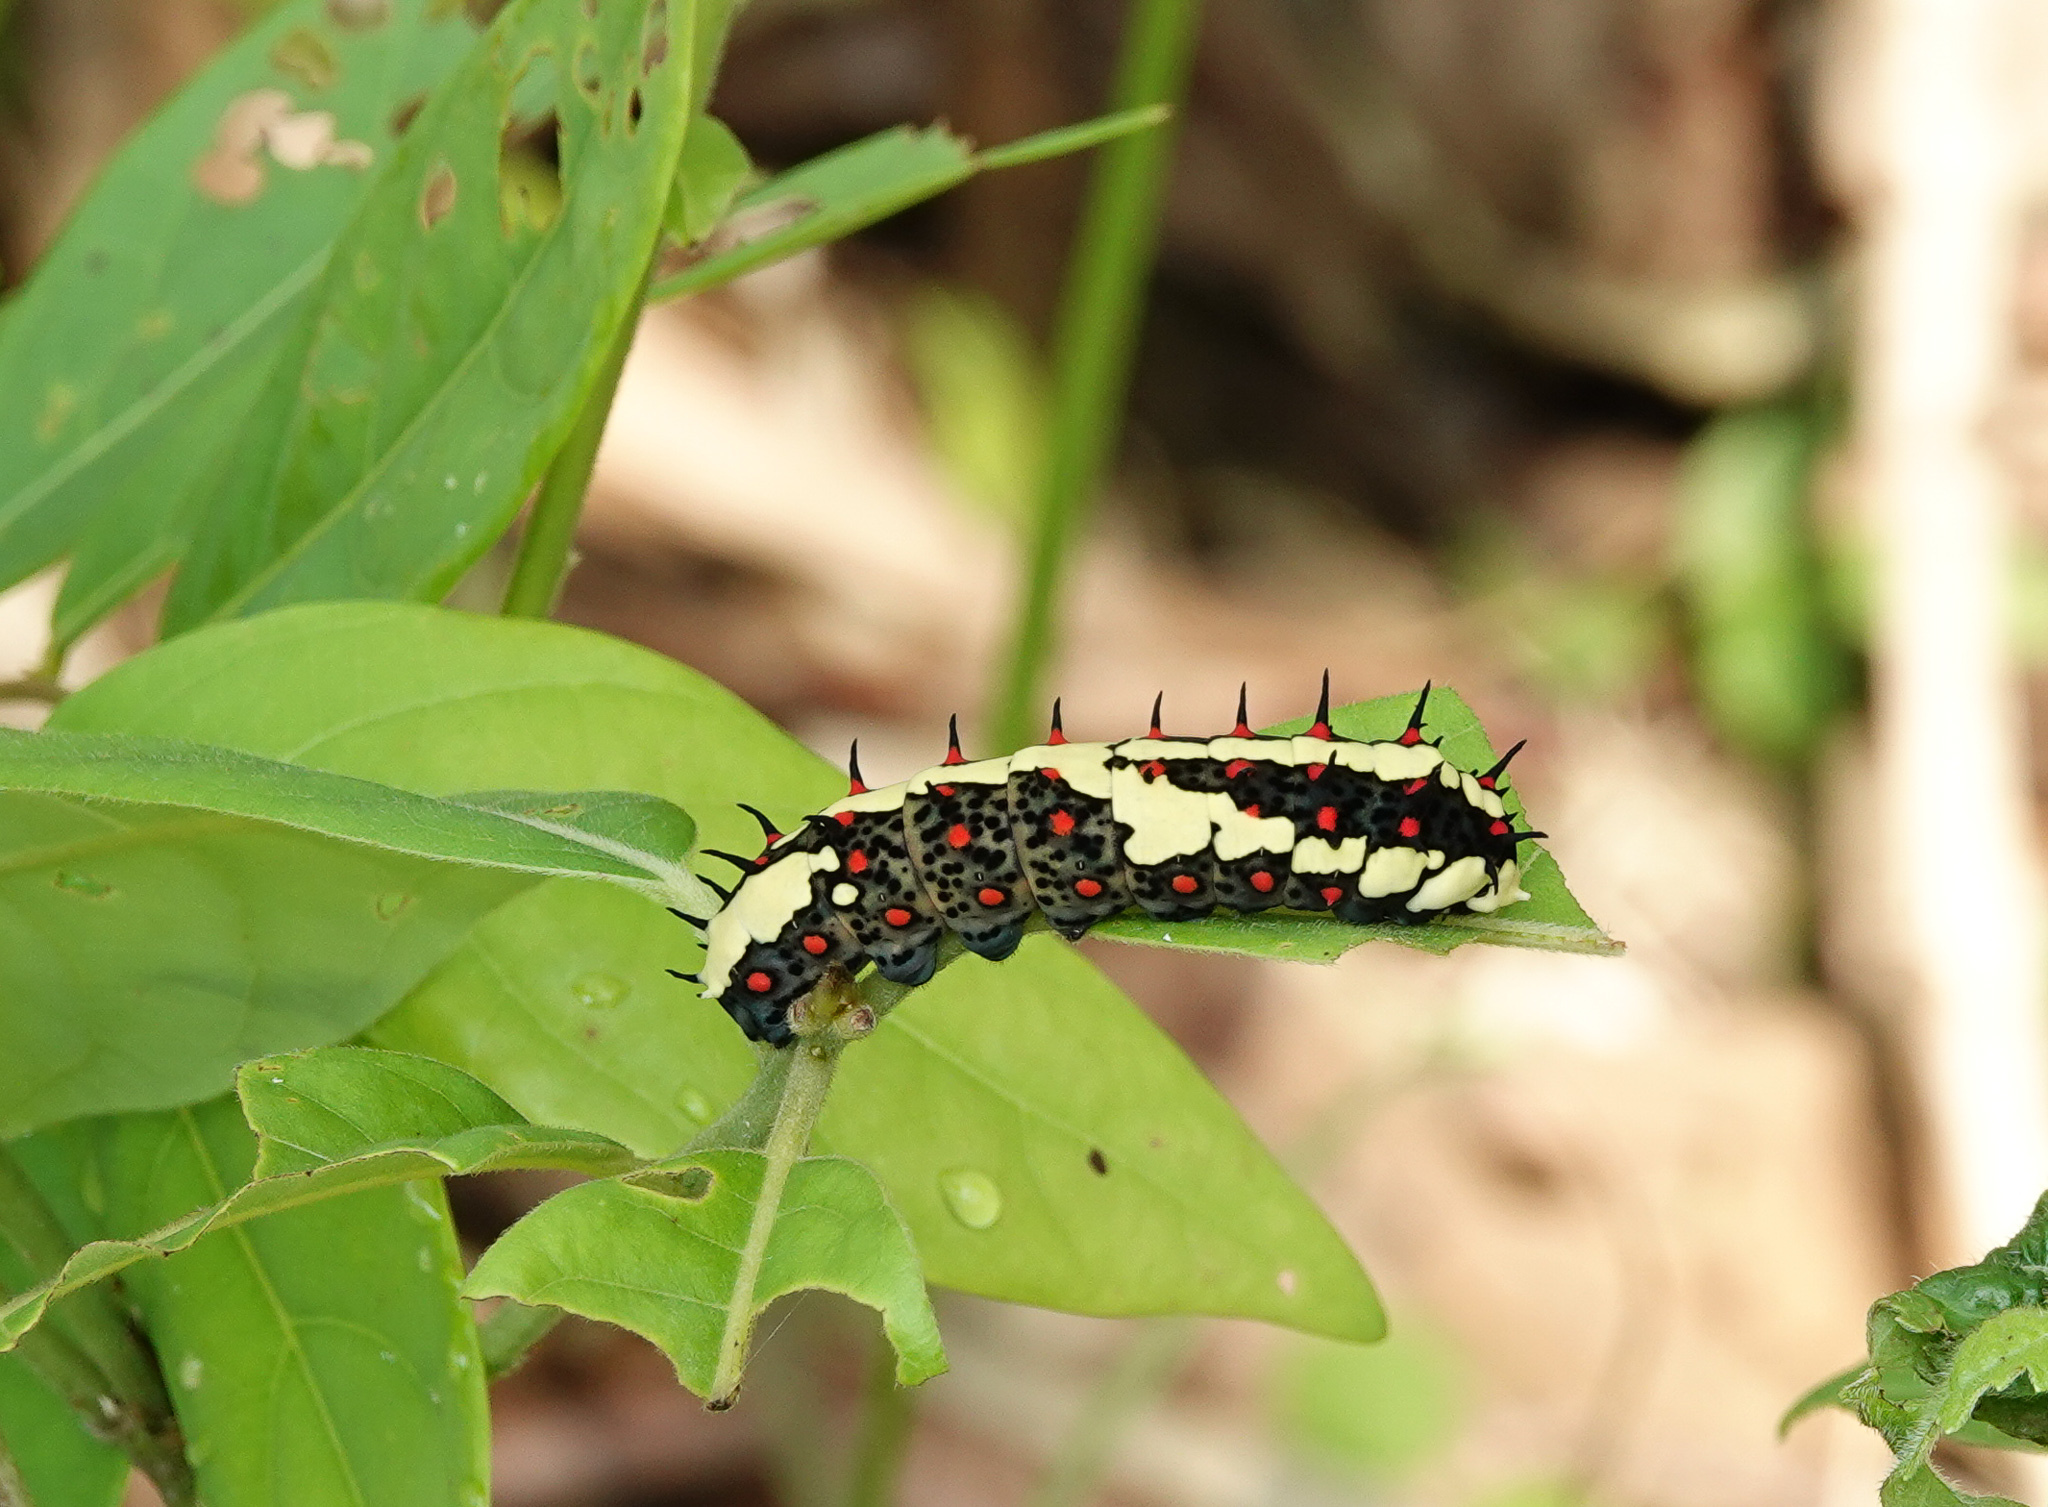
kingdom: Animalia
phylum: Arthropoda
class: Insecta
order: Lepidoptera
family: Papilionidae
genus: Chilasa
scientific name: Chilasa clytia
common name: Common mime
